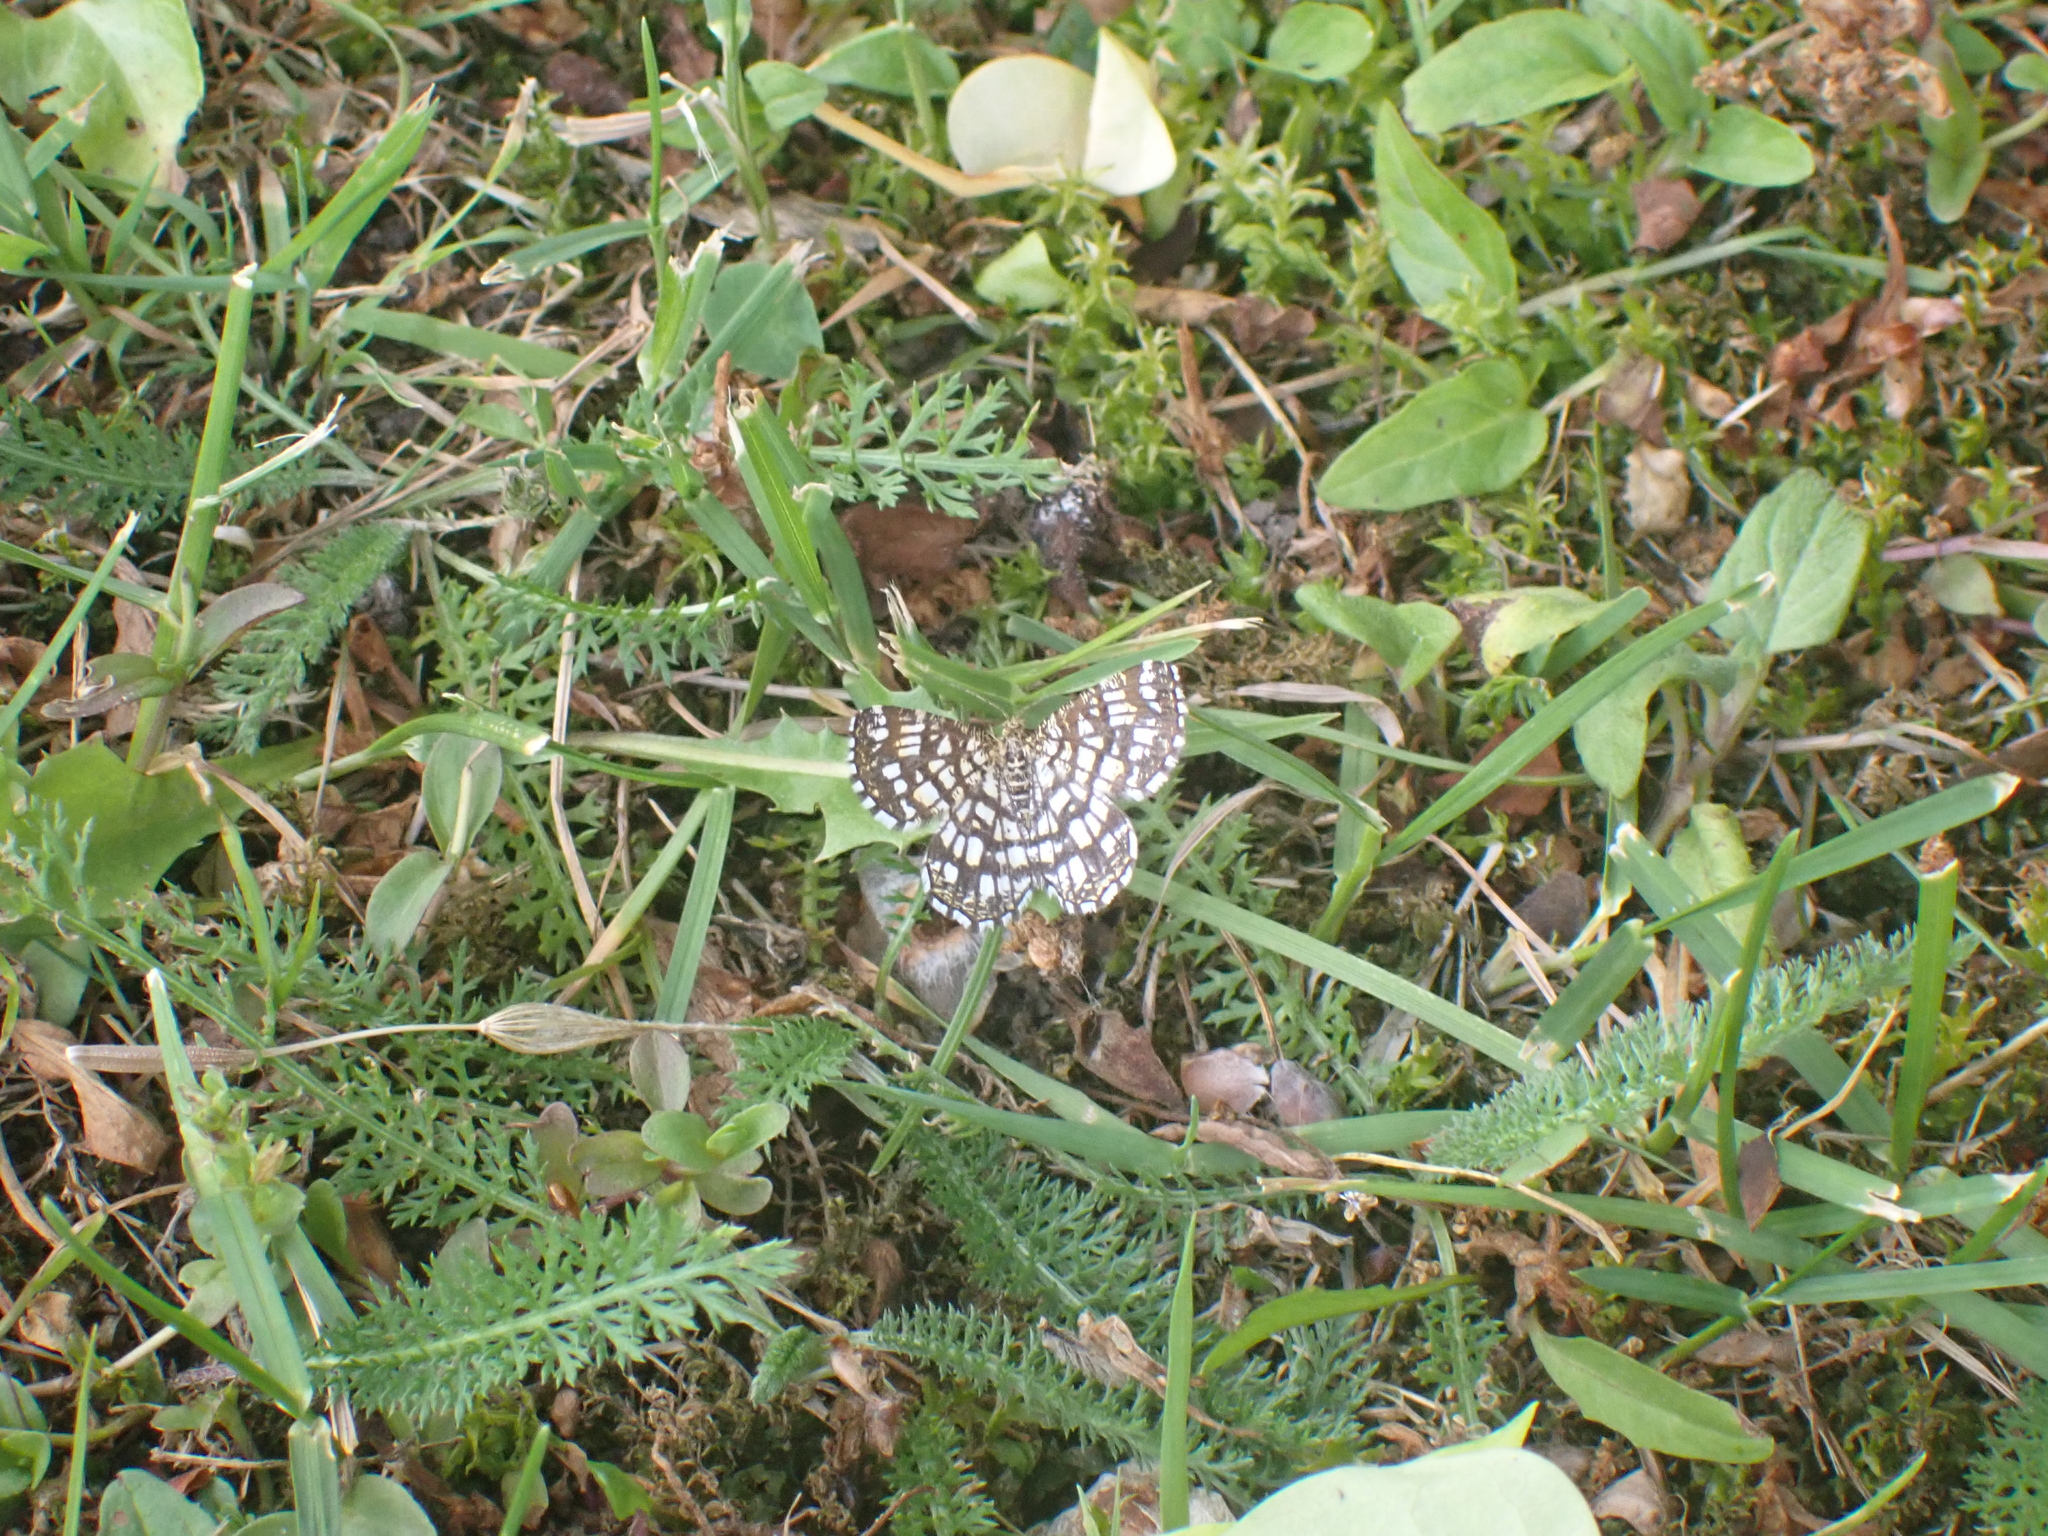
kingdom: Animalia
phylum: Arthropoda
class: Insecta
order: Lepidoptera
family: Geometridae
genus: Chiasmia
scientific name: Chiasmia clathrata
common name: Latticed heath
